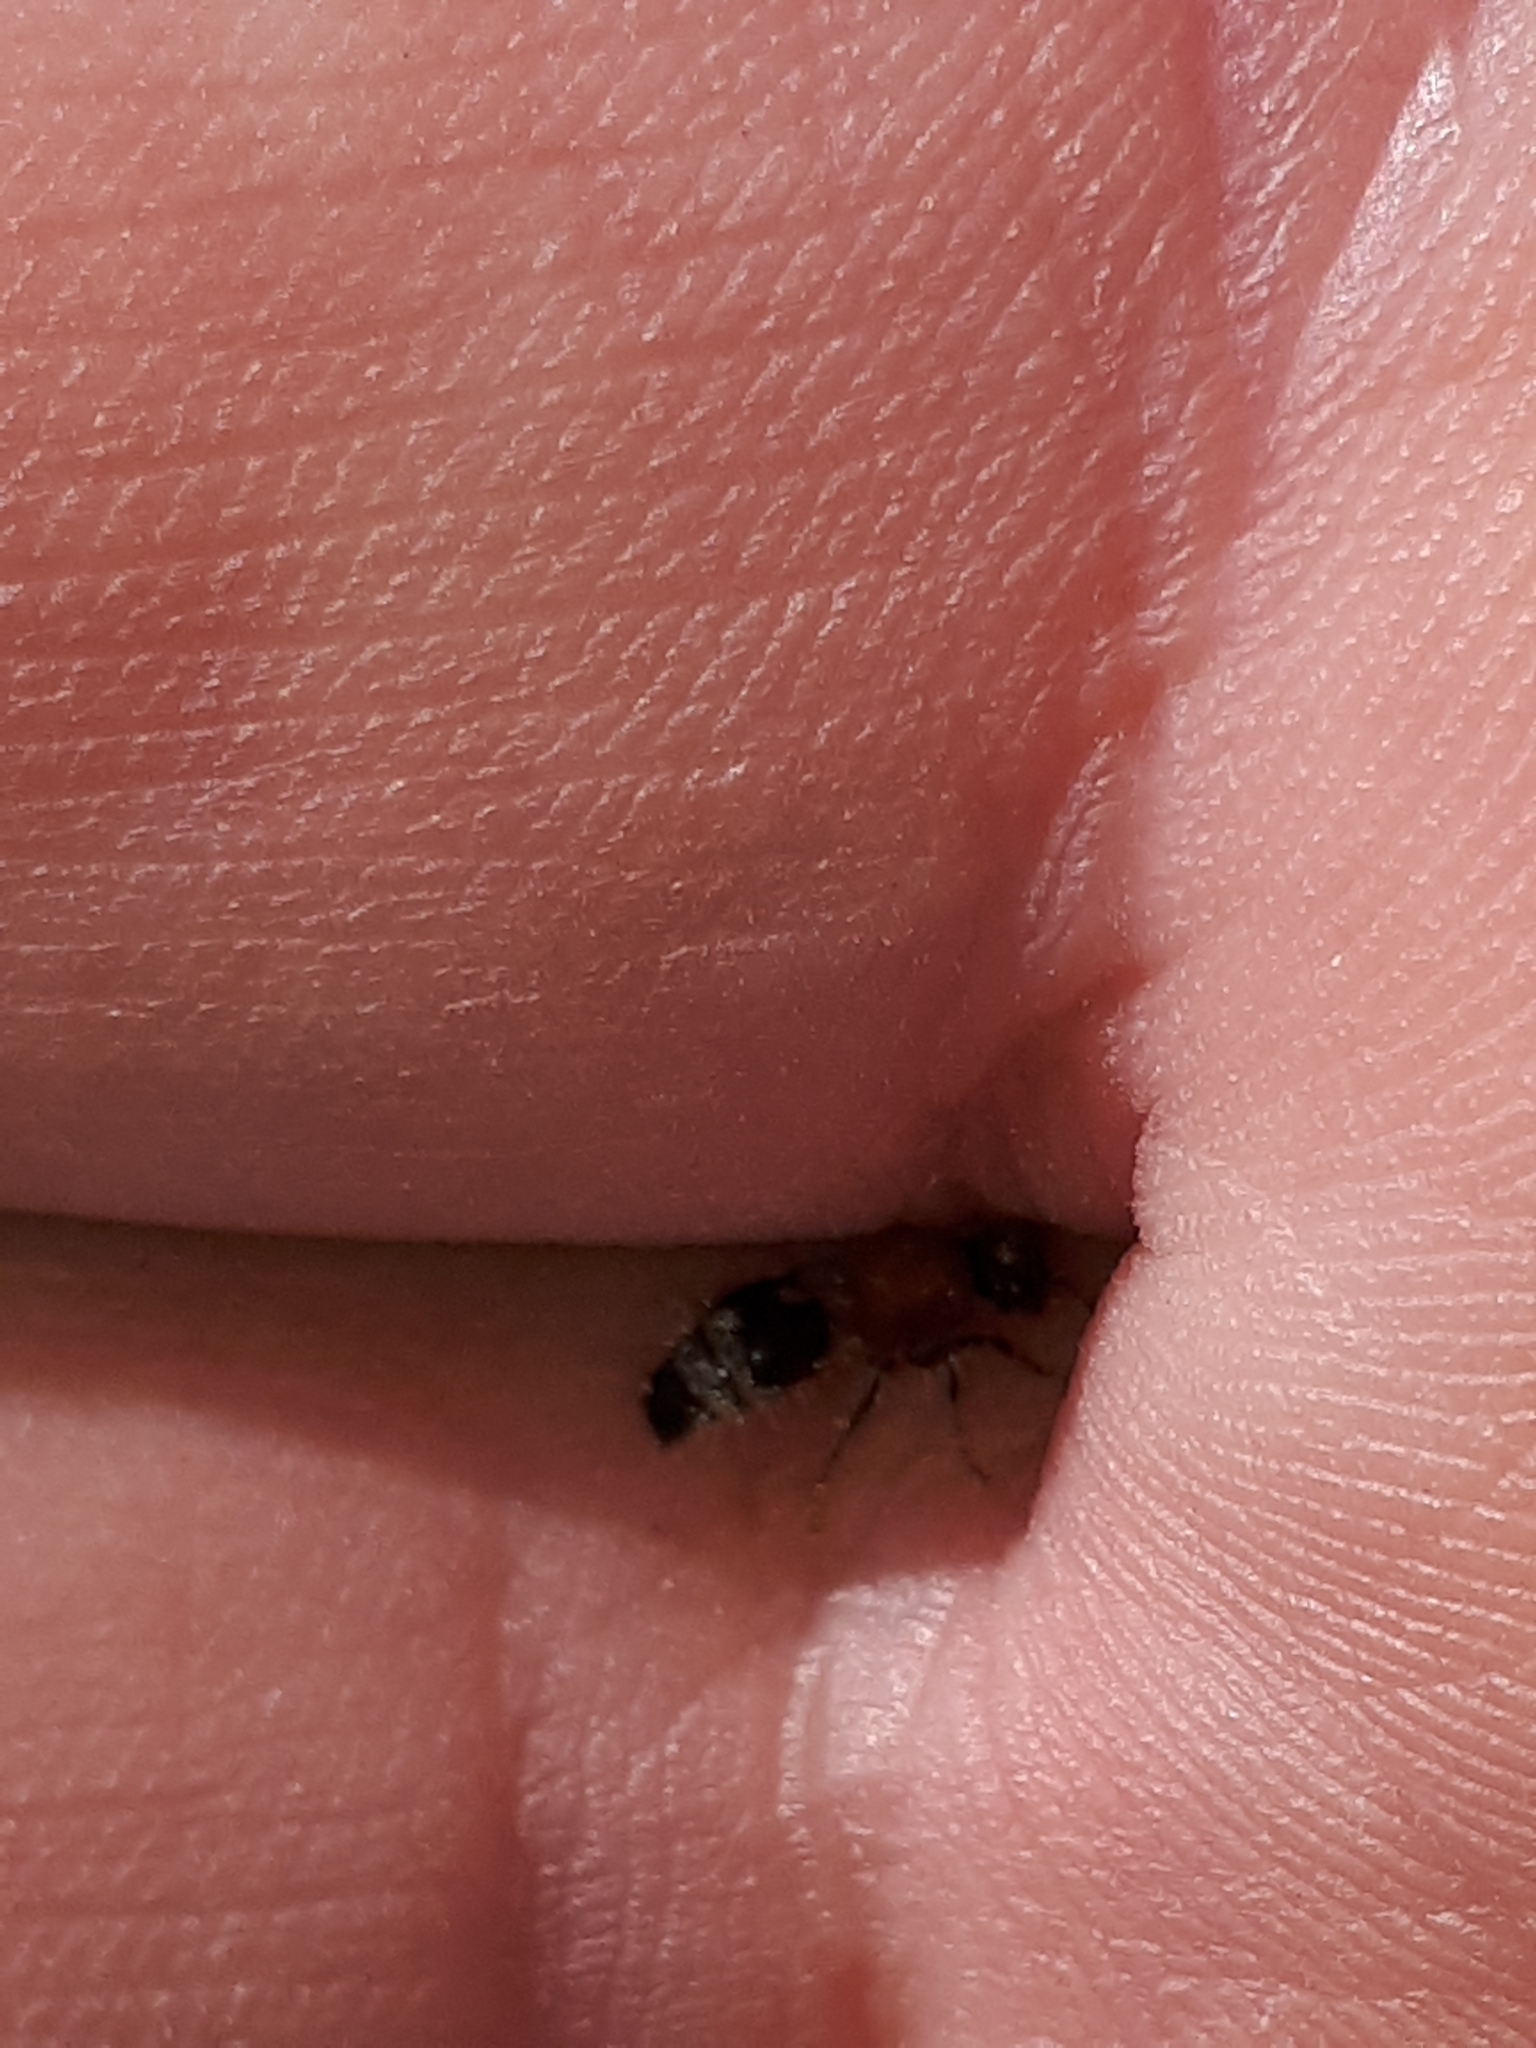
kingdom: Animalia
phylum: Arthropoda
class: Insecta
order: Hymenoptera
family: Mutillidae
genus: Nemka
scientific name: Nemka viduata
